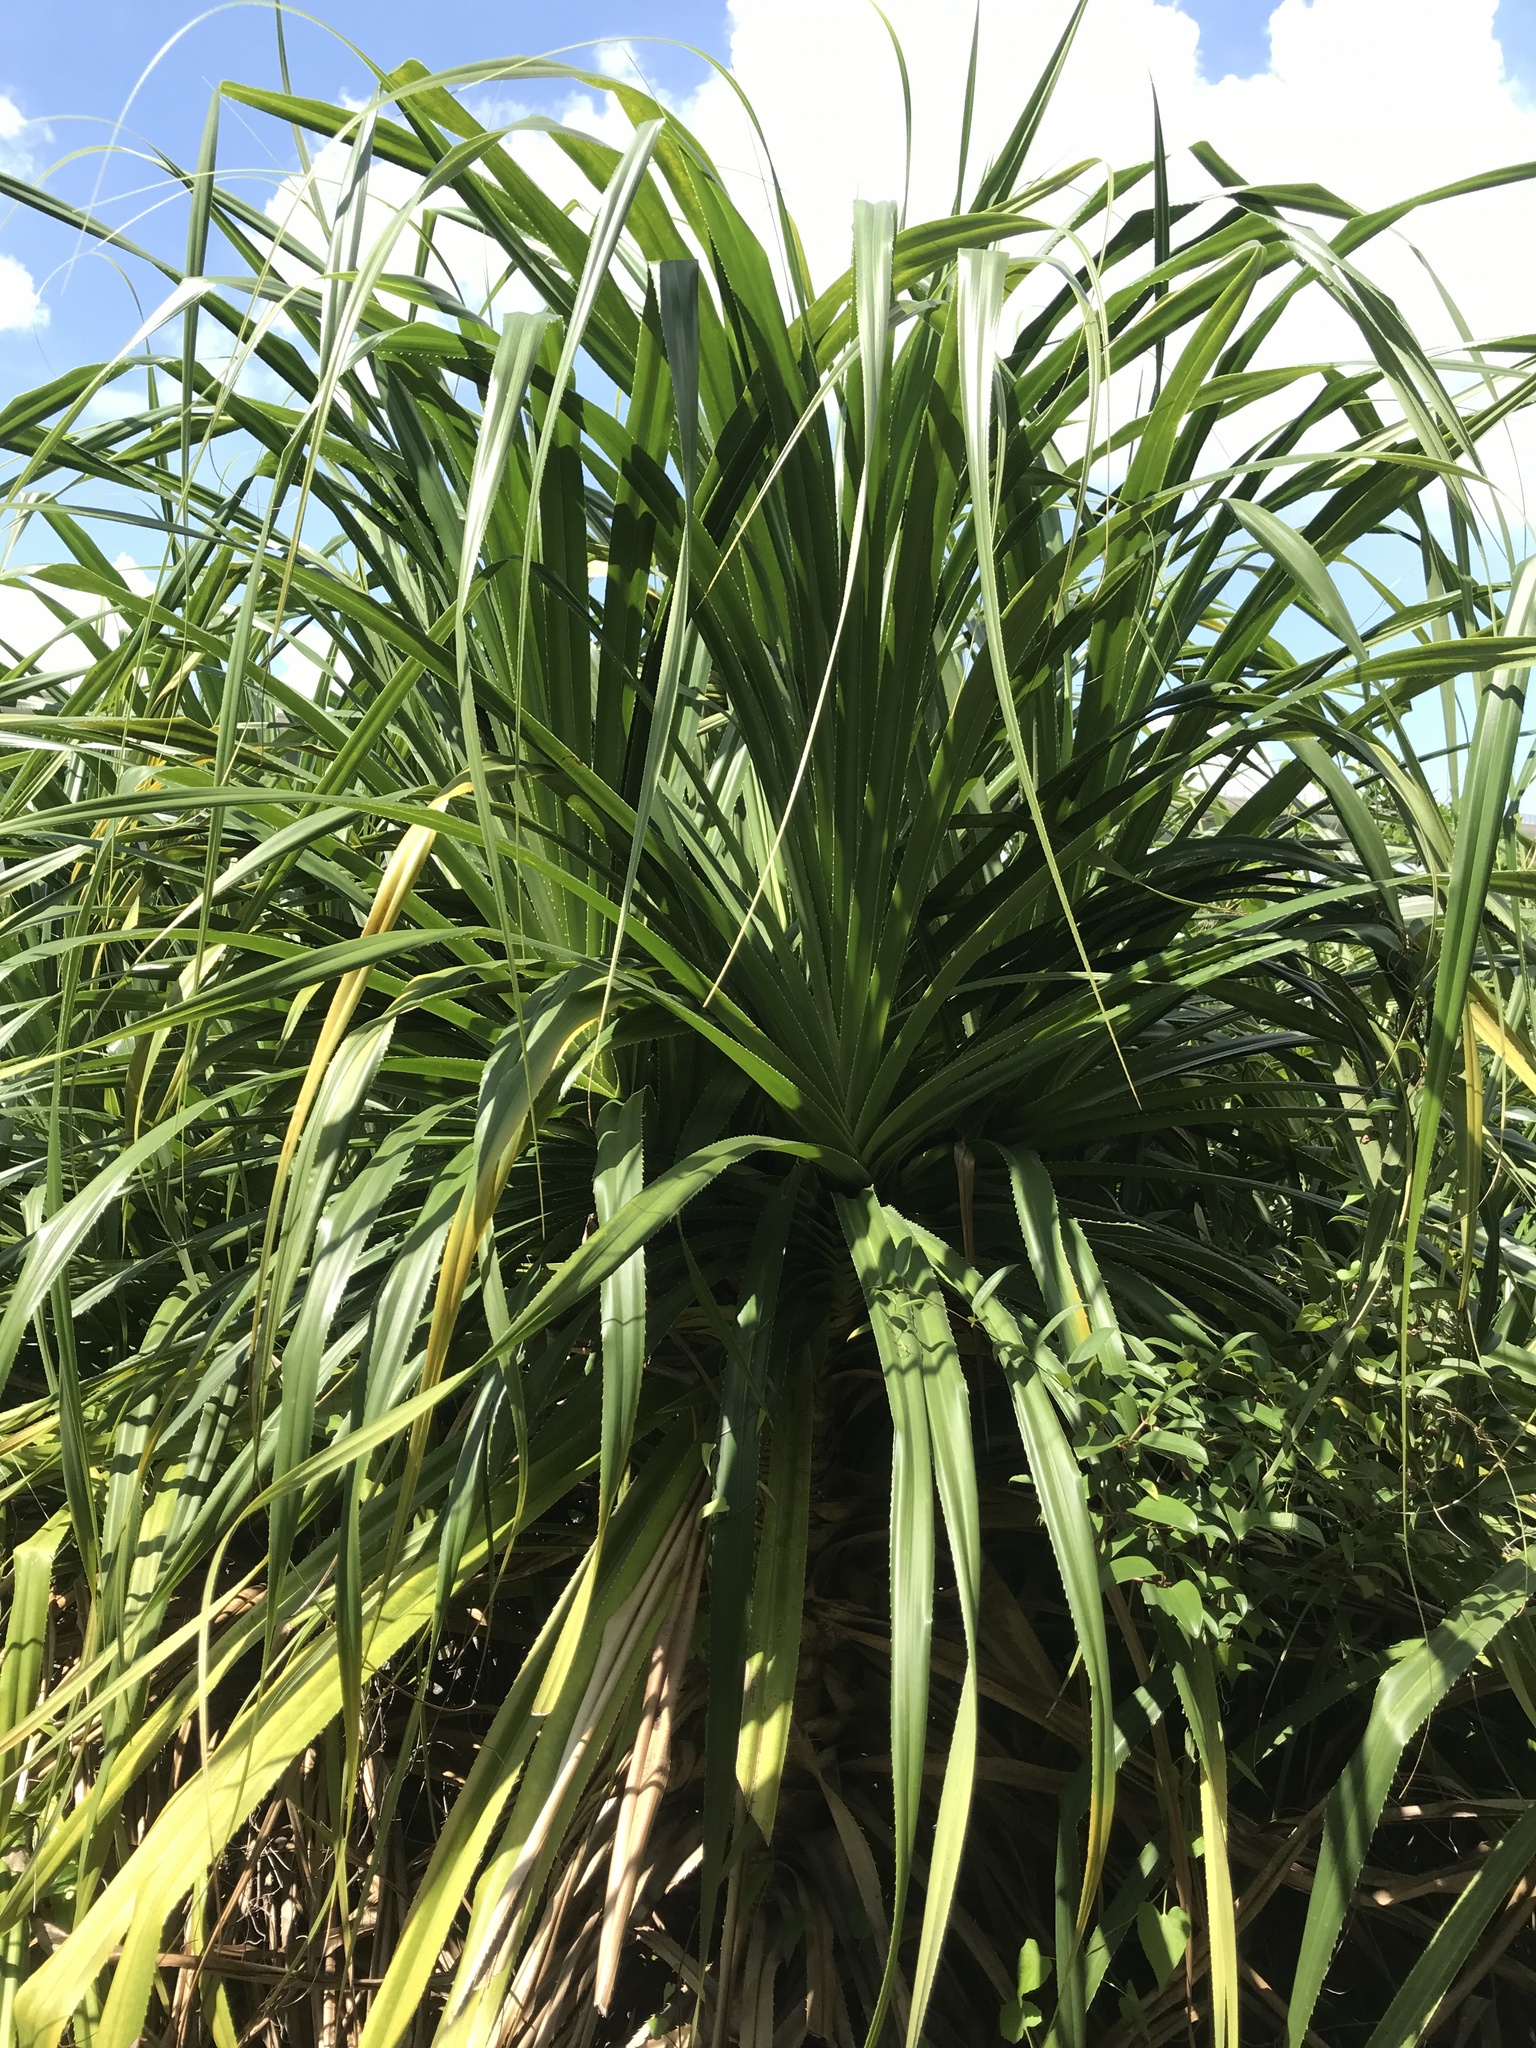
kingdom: Plantae
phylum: Tracheophyta
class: Liliopsida
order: Pandanales
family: Pandanaceae
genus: Pandanus
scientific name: Pandanus tectorius
